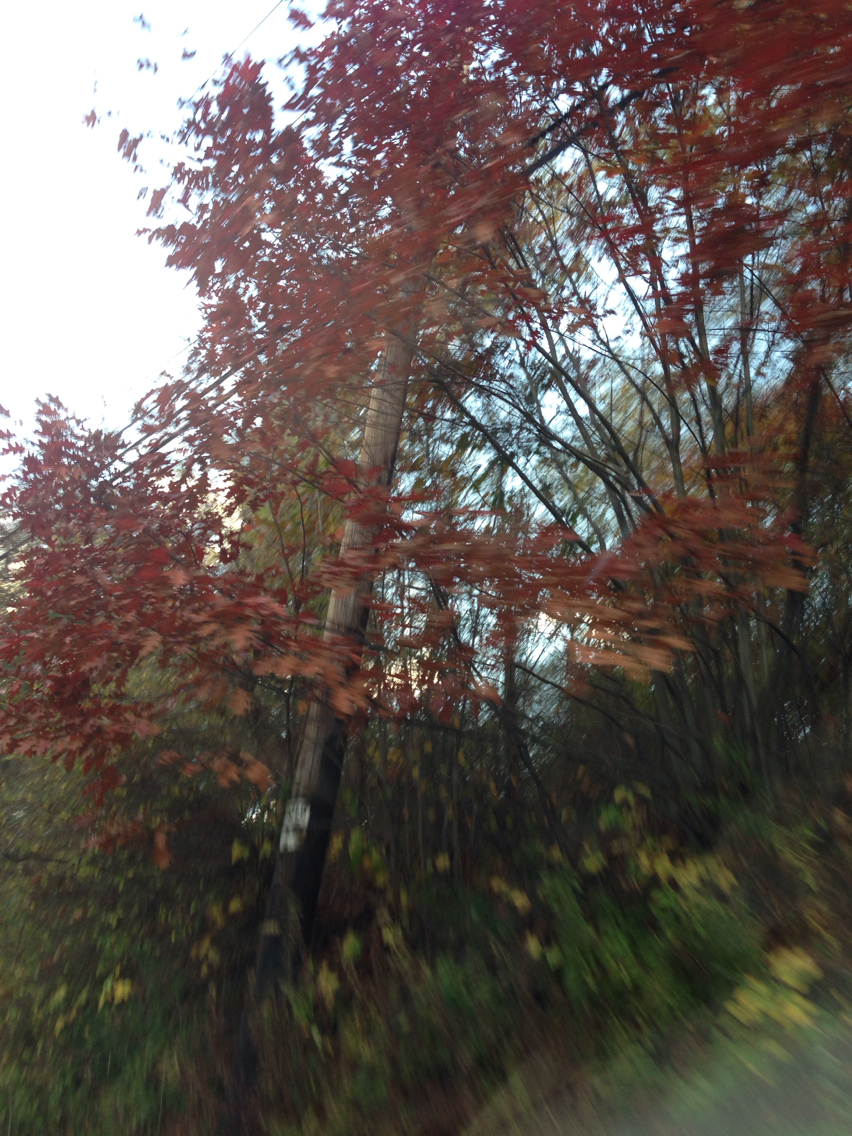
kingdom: Plantae
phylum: Tracheophyta
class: Magnoliopsida
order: Fagales
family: Fagaceae
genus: Quercus
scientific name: Quercus rubra
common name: Red oak
